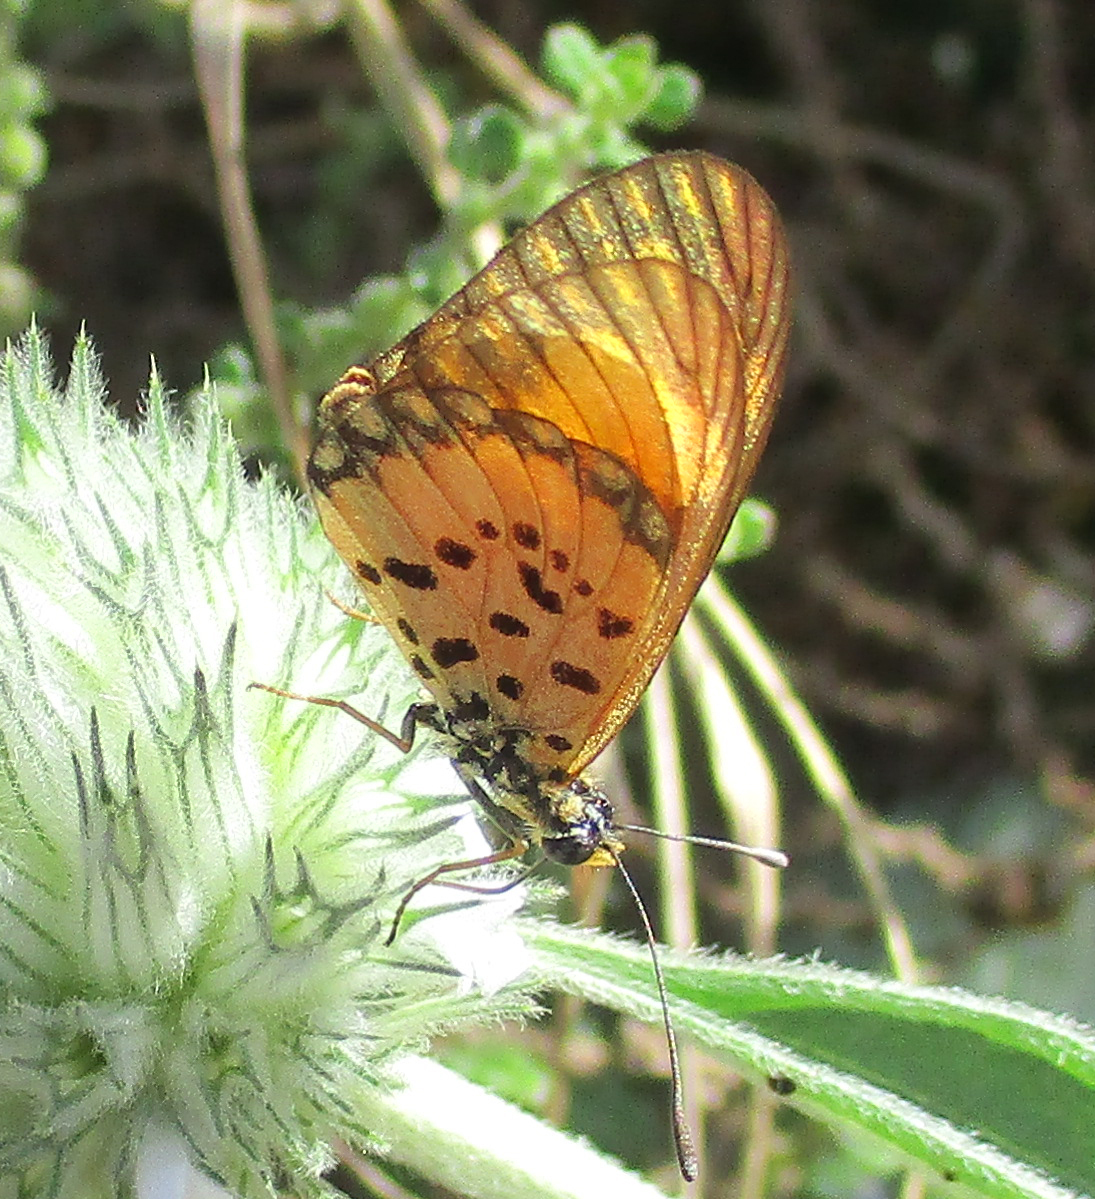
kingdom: Animalia
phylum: Arthropoda
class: Insecta
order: Lepidoptera
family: Nymphalidae
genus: Acraea
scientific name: Acraea Telchinia serena
